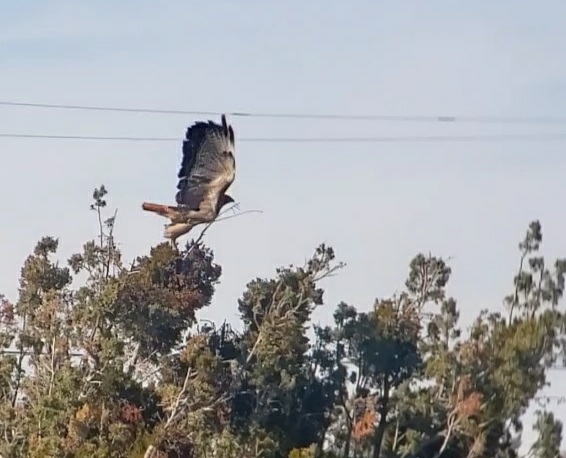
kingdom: Animalia
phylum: Chordata
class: Aves
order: Accipitriformes
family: Accipitridae
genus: Buteo
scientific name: Buteo jamaicensis
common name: Red-tailed hawk
